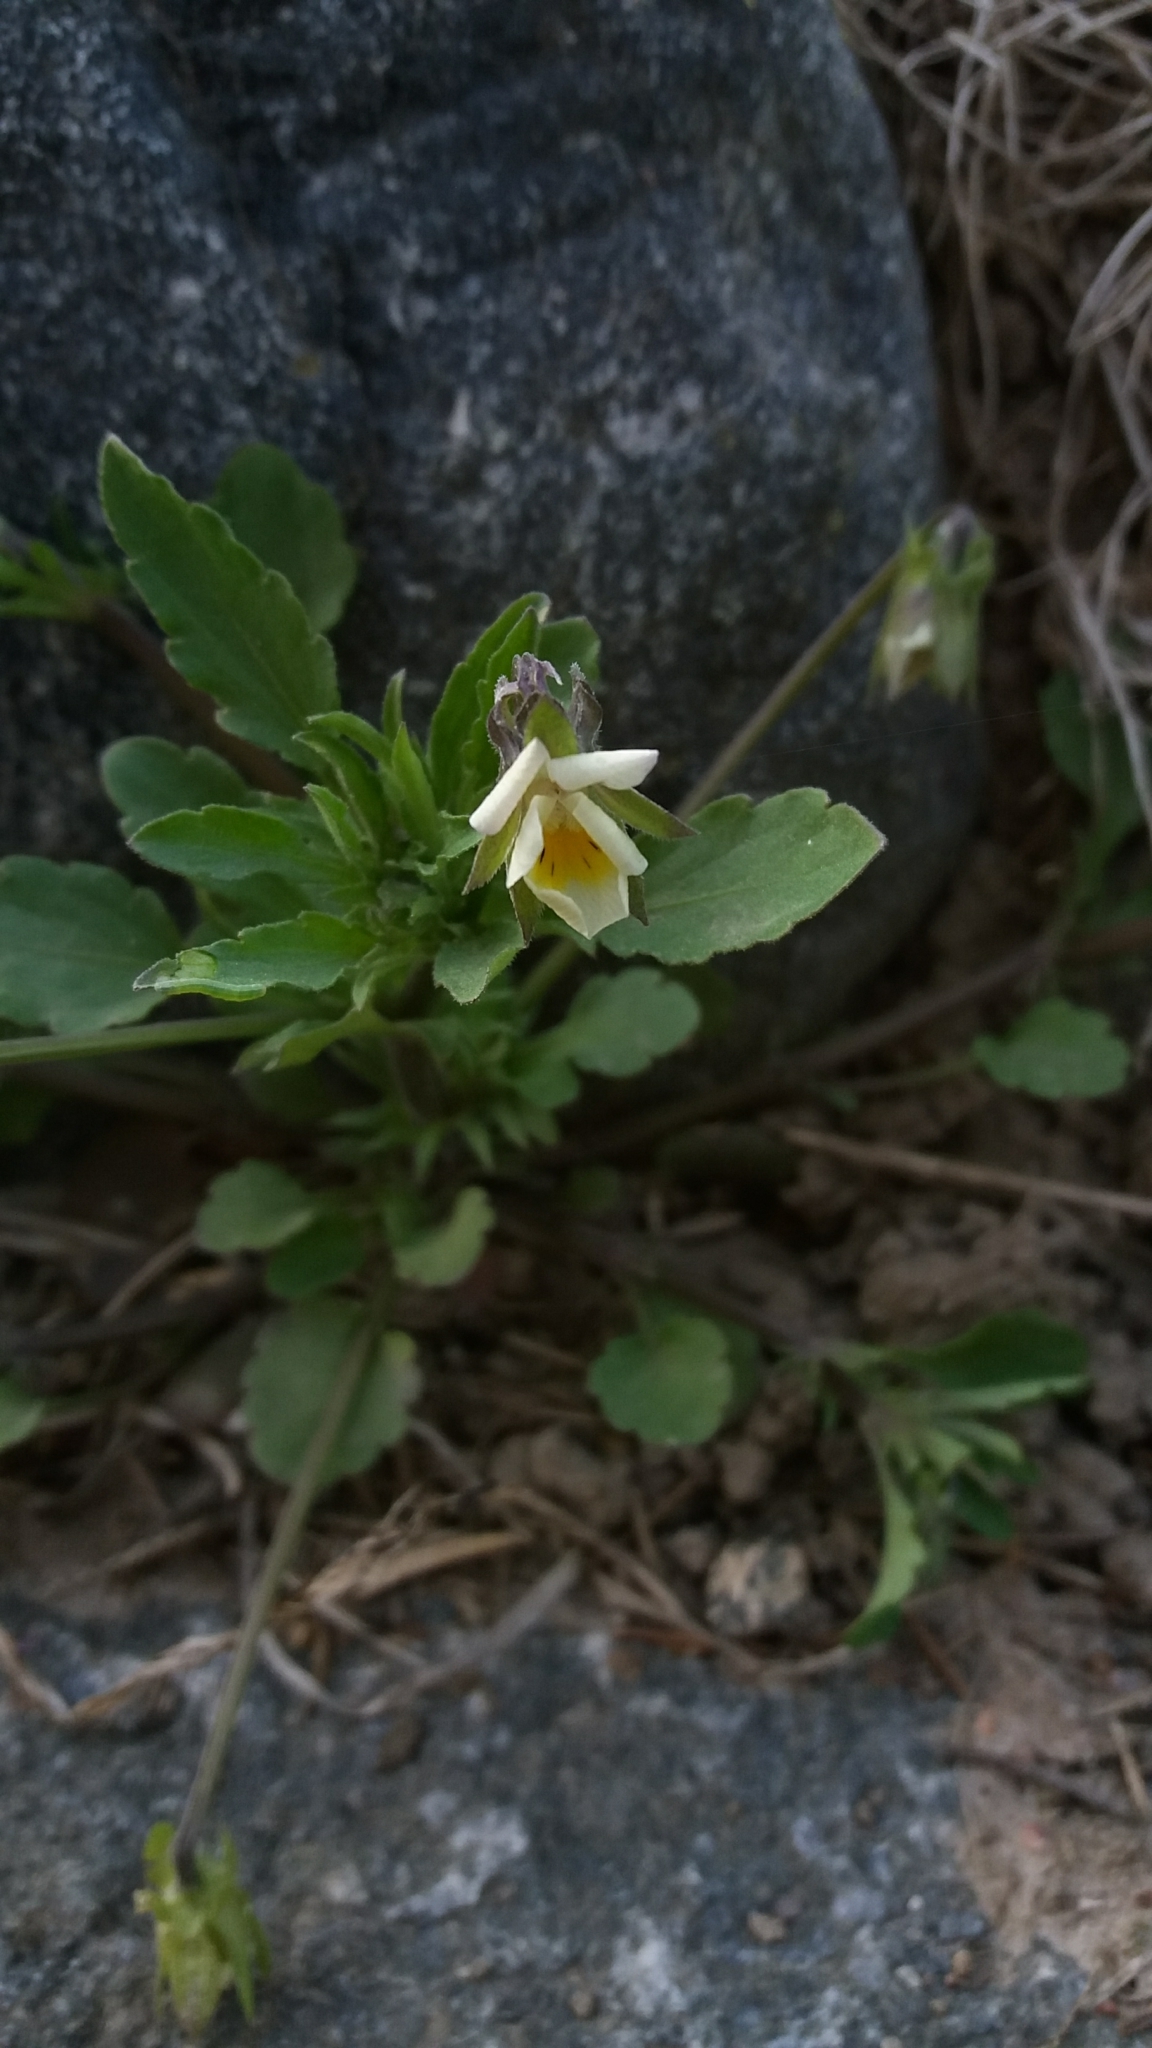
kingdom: Plantae
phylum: Tracheophyta
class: Magnoliopsida
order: Malpighiales
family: Violaceae
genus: Viola
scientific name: Viola arvensis
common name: Field pansy
